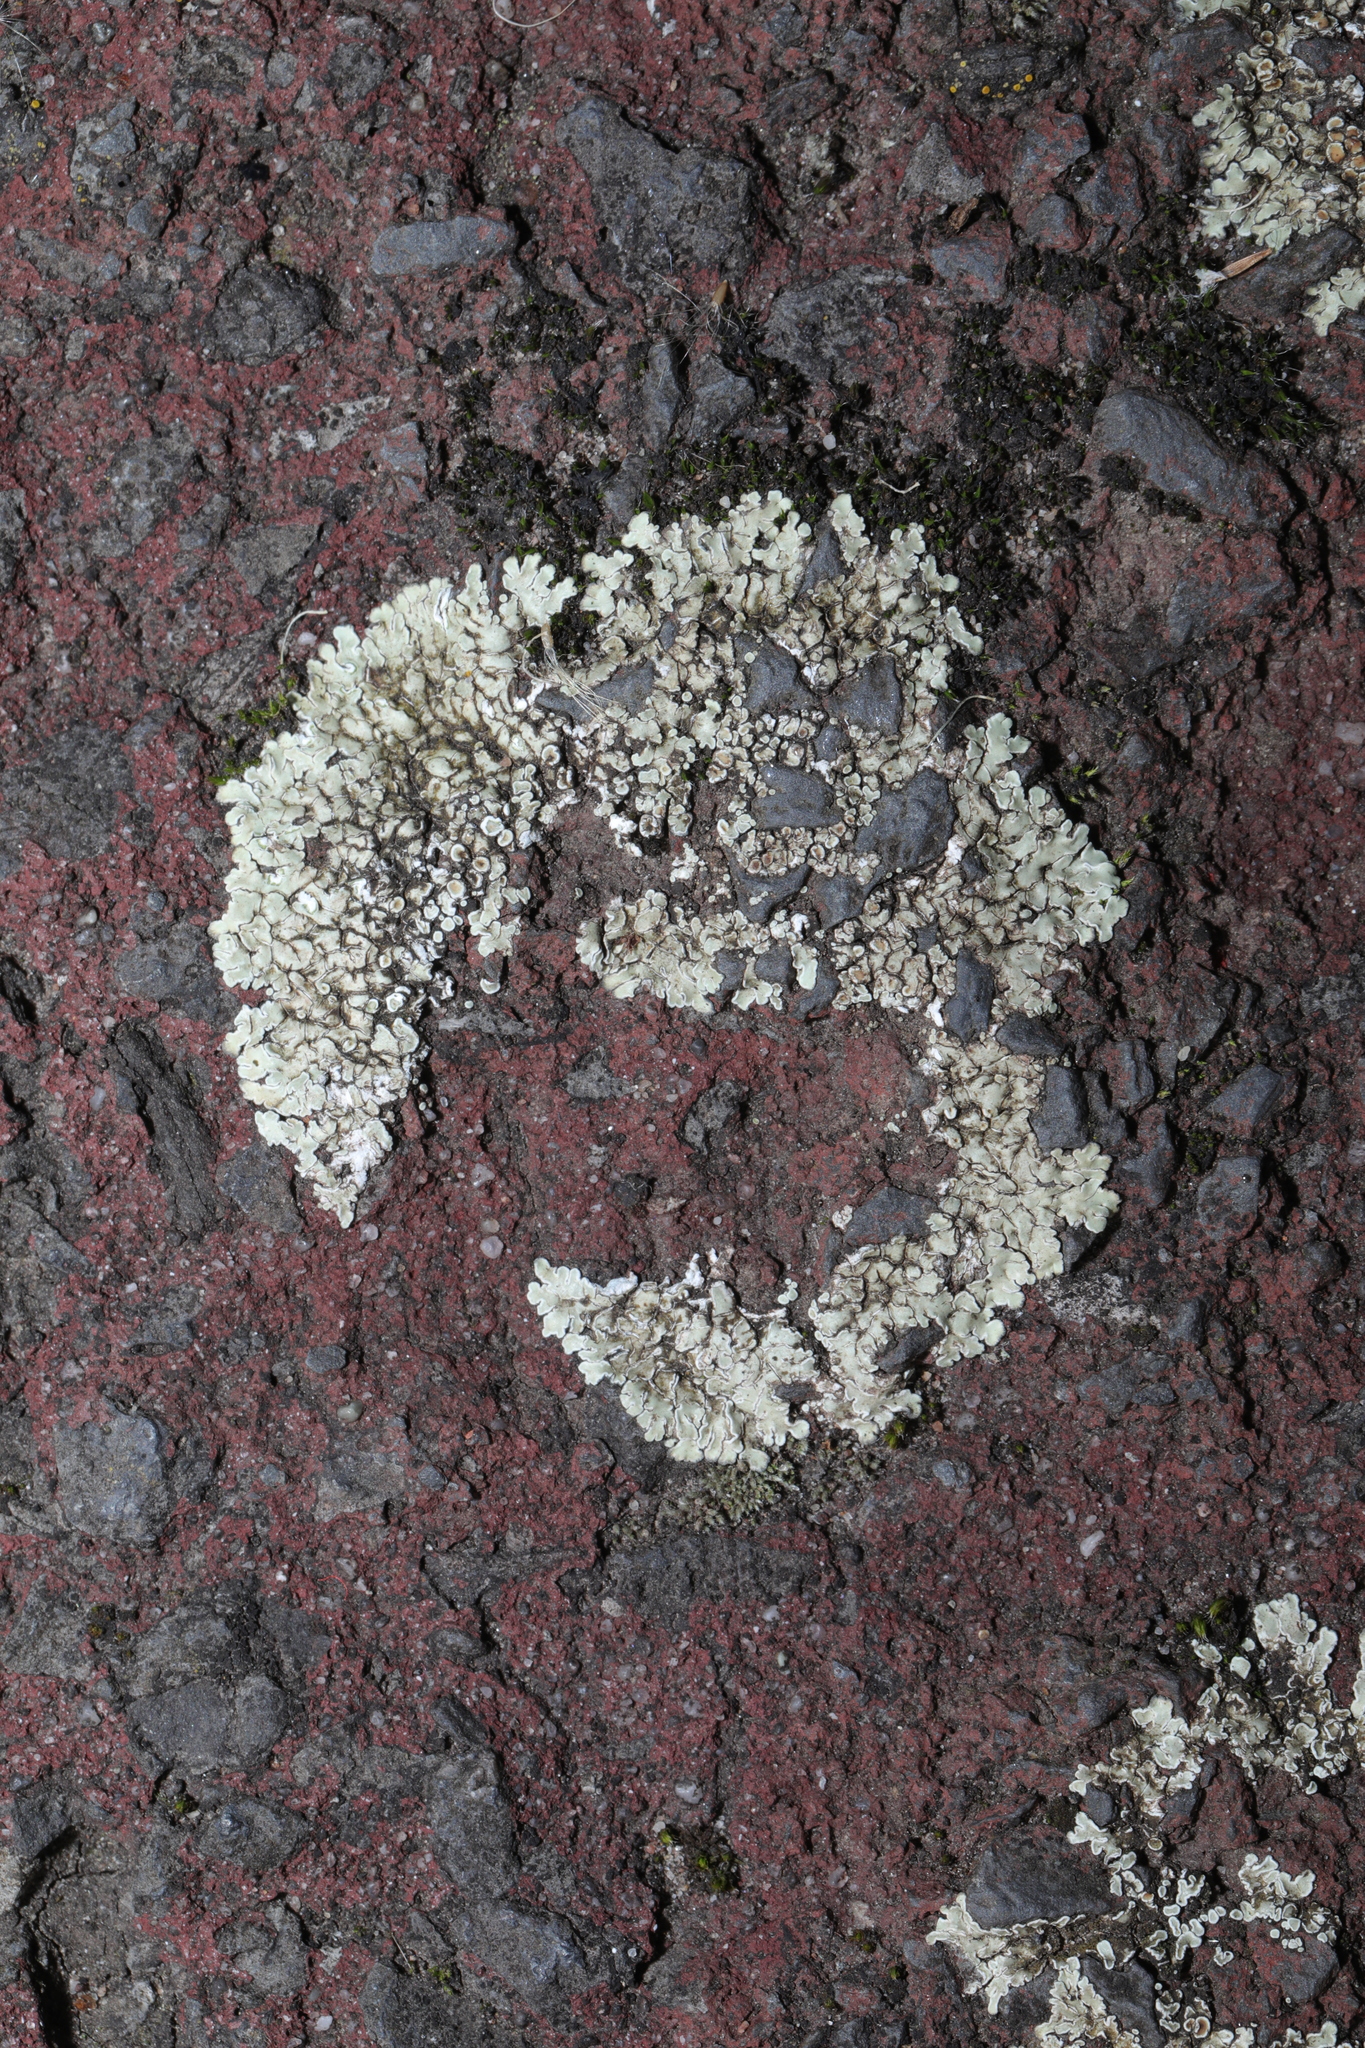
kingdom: Fungi
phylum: Ascomycota
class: Lecanoromycetes
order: Lecanorales
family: Lecanoraceae
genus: Protoparmeliopsis
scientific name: Protoparmeliopsis muralis
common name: Stonewall rim lichen
